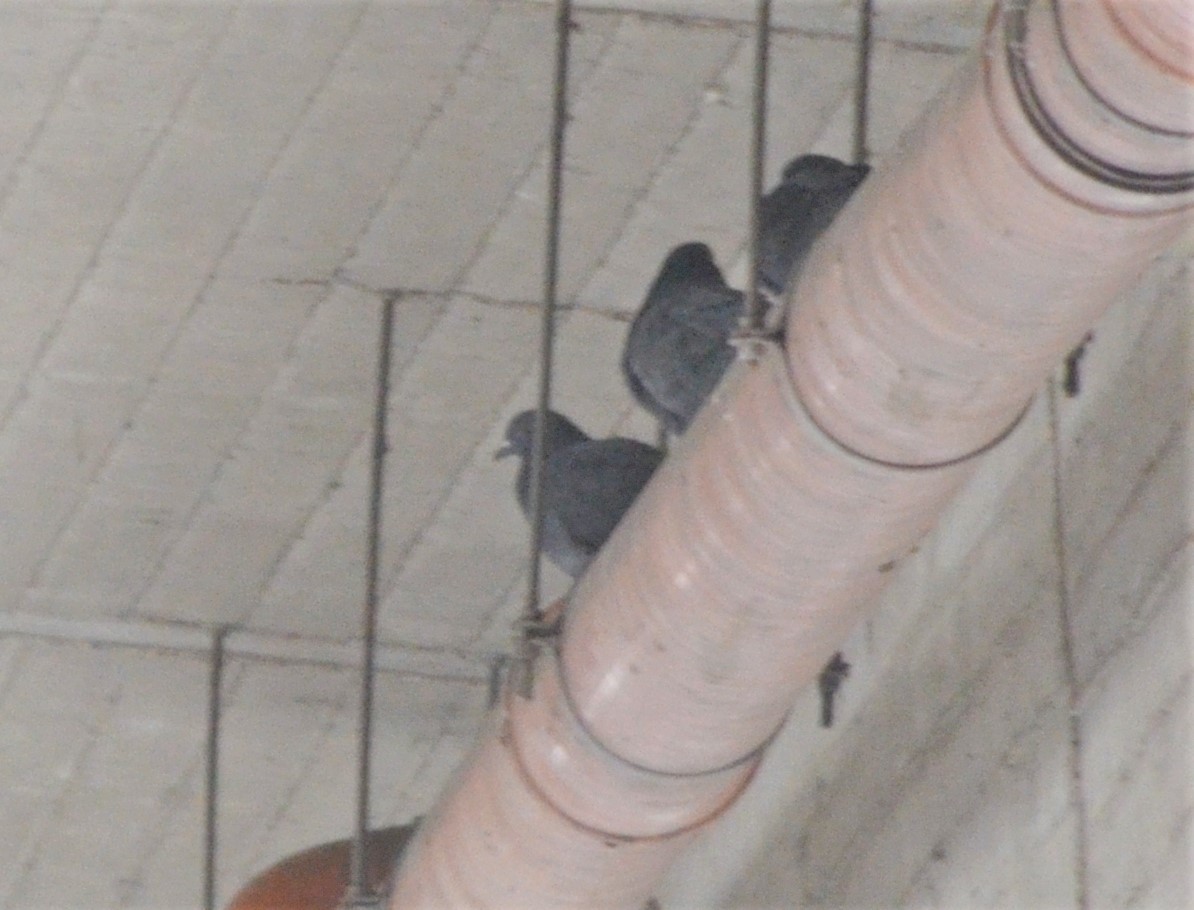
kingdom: Animalia
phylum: Chordata
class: Aves
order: Columbiformes
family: Columbidae
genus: Columba
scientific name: Columba livia
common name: Rock pigeon
